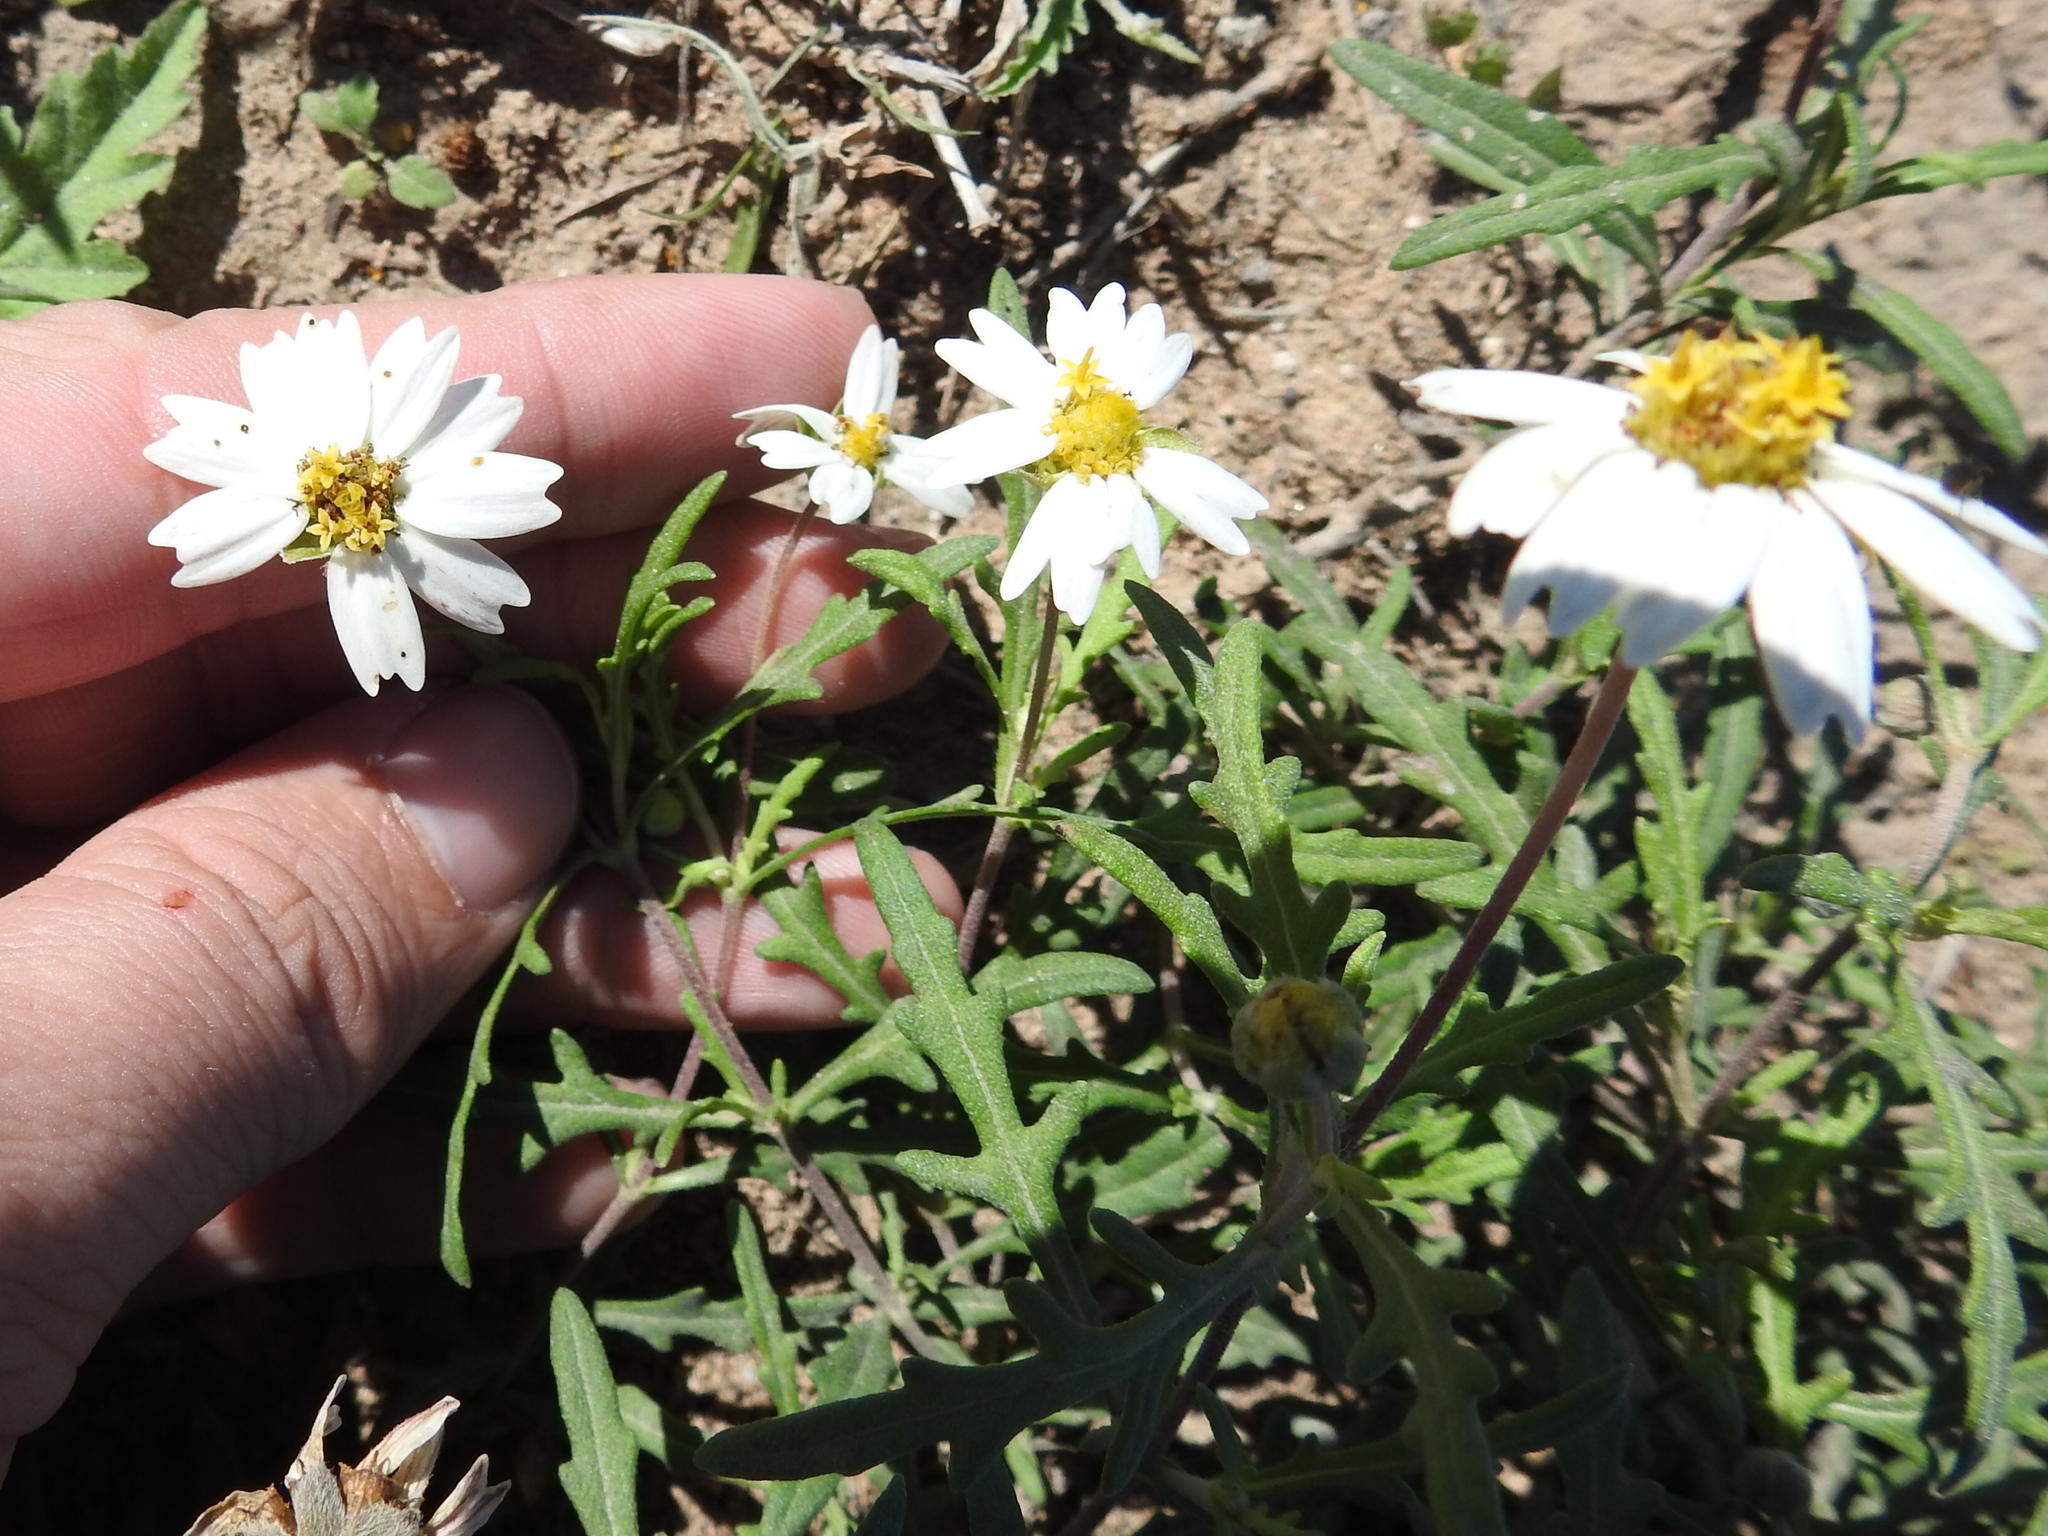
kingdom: Plantae
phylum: Tracheophyta
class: Magnoliopsida
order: Asterales
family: Asteraceae
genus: Melampodium
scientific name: Melampodium cinereum
